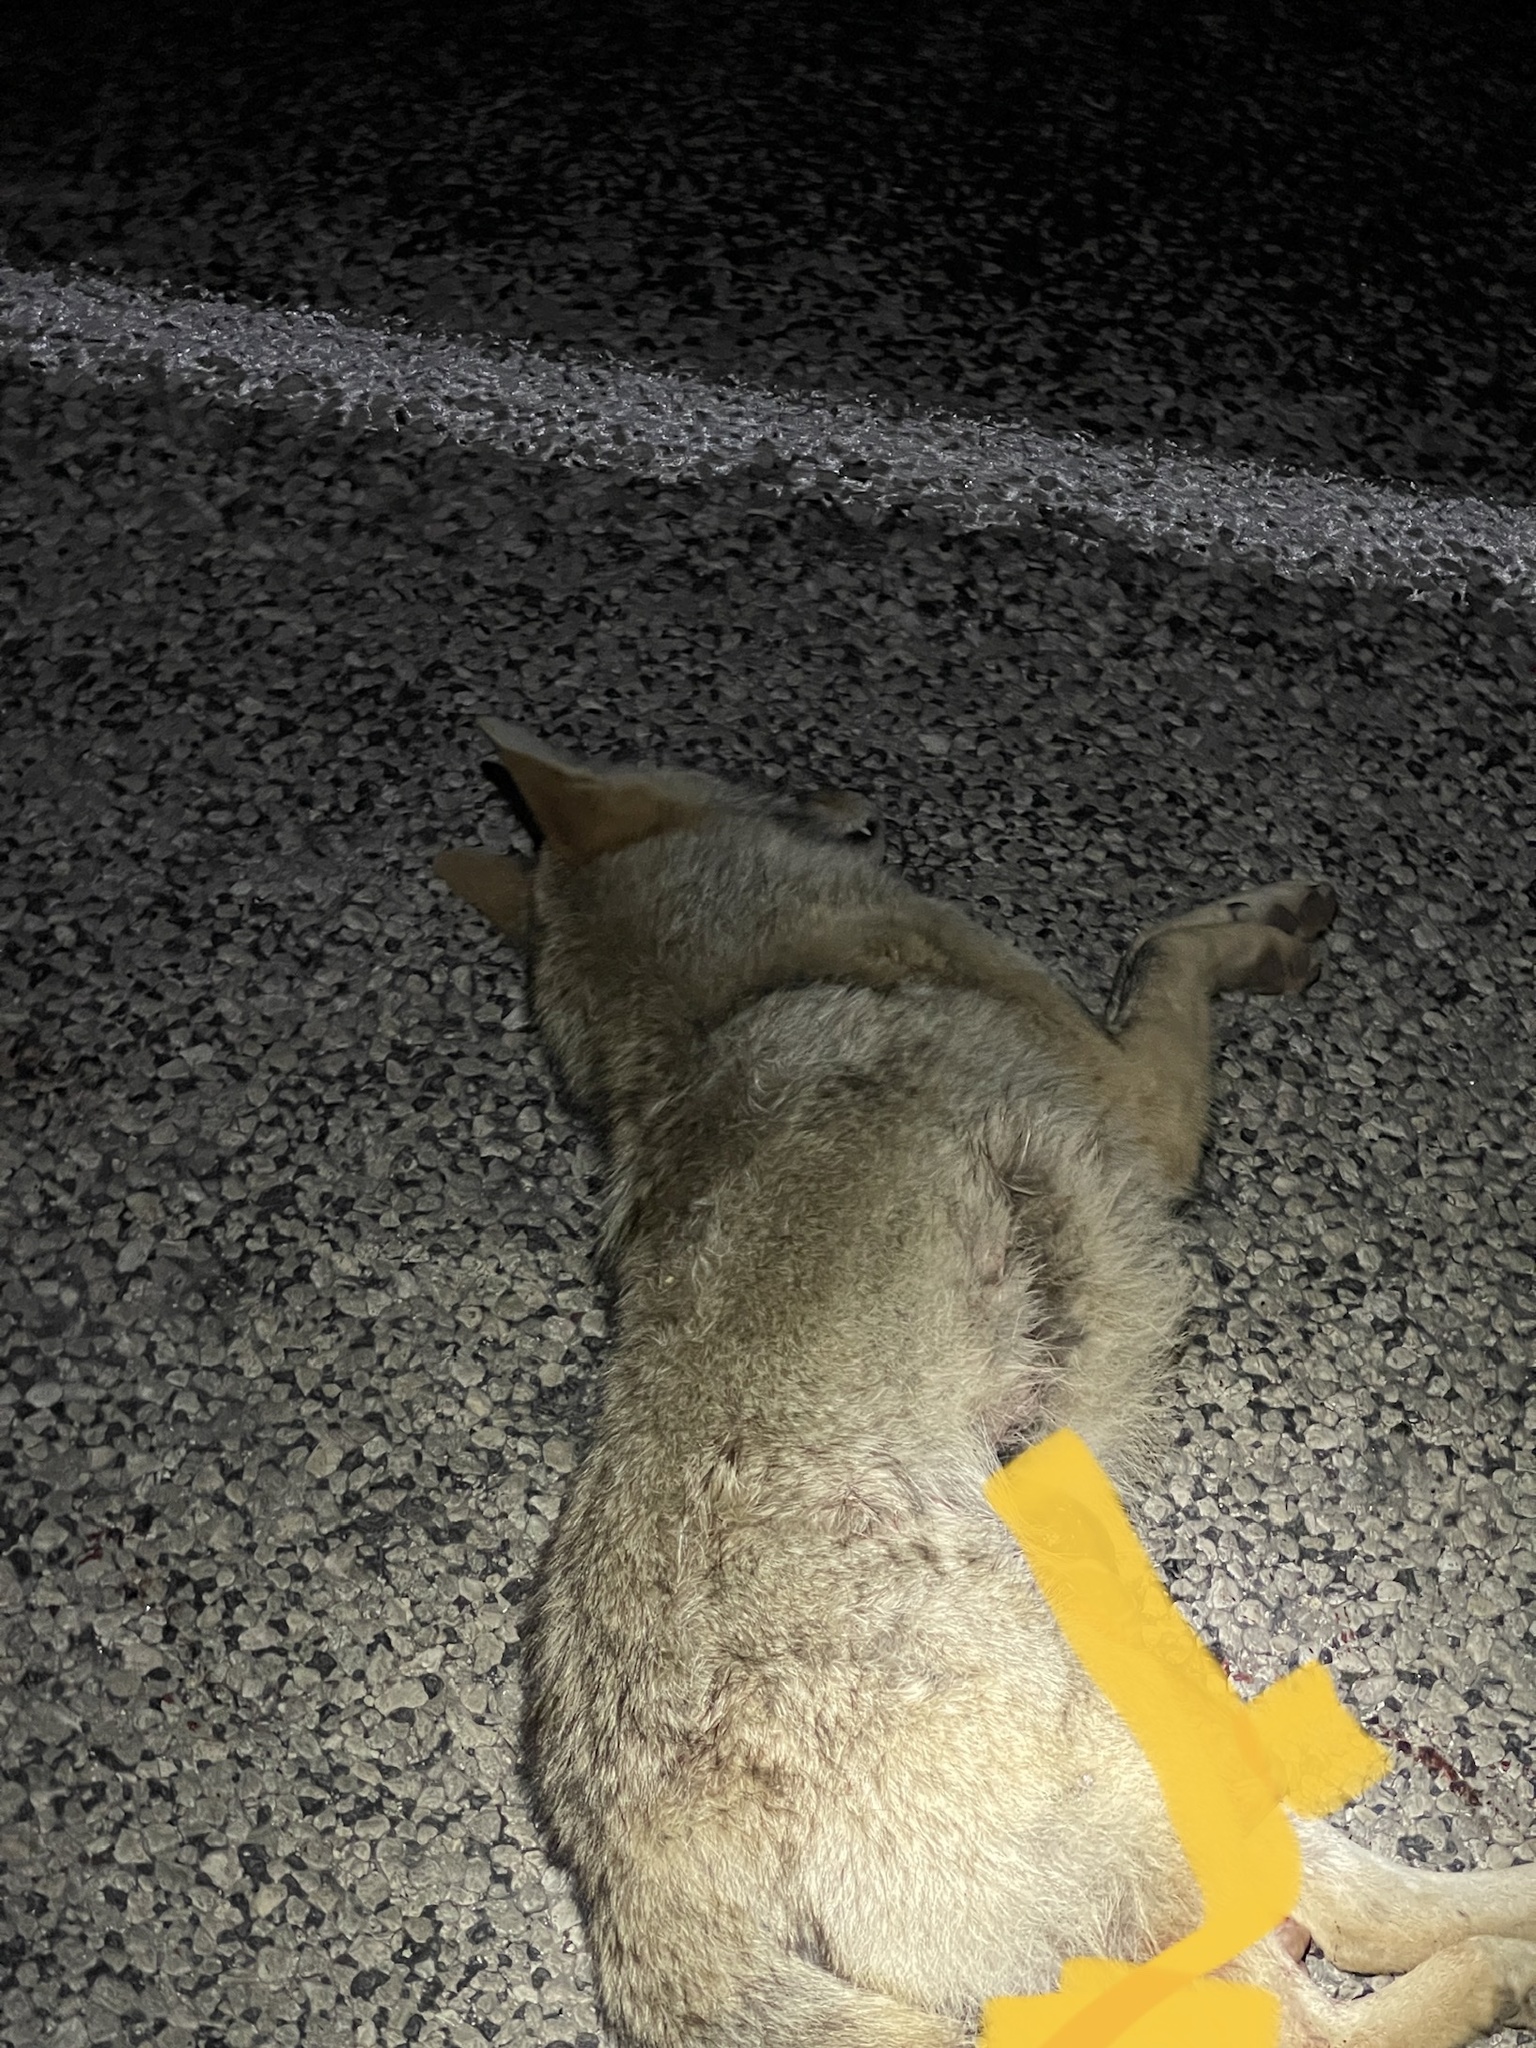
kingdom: Animalia
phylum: Chordata
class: Mammalia
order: Carnivora
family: Canidae
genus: Canis
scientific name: Canis latrans
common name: Coyote
